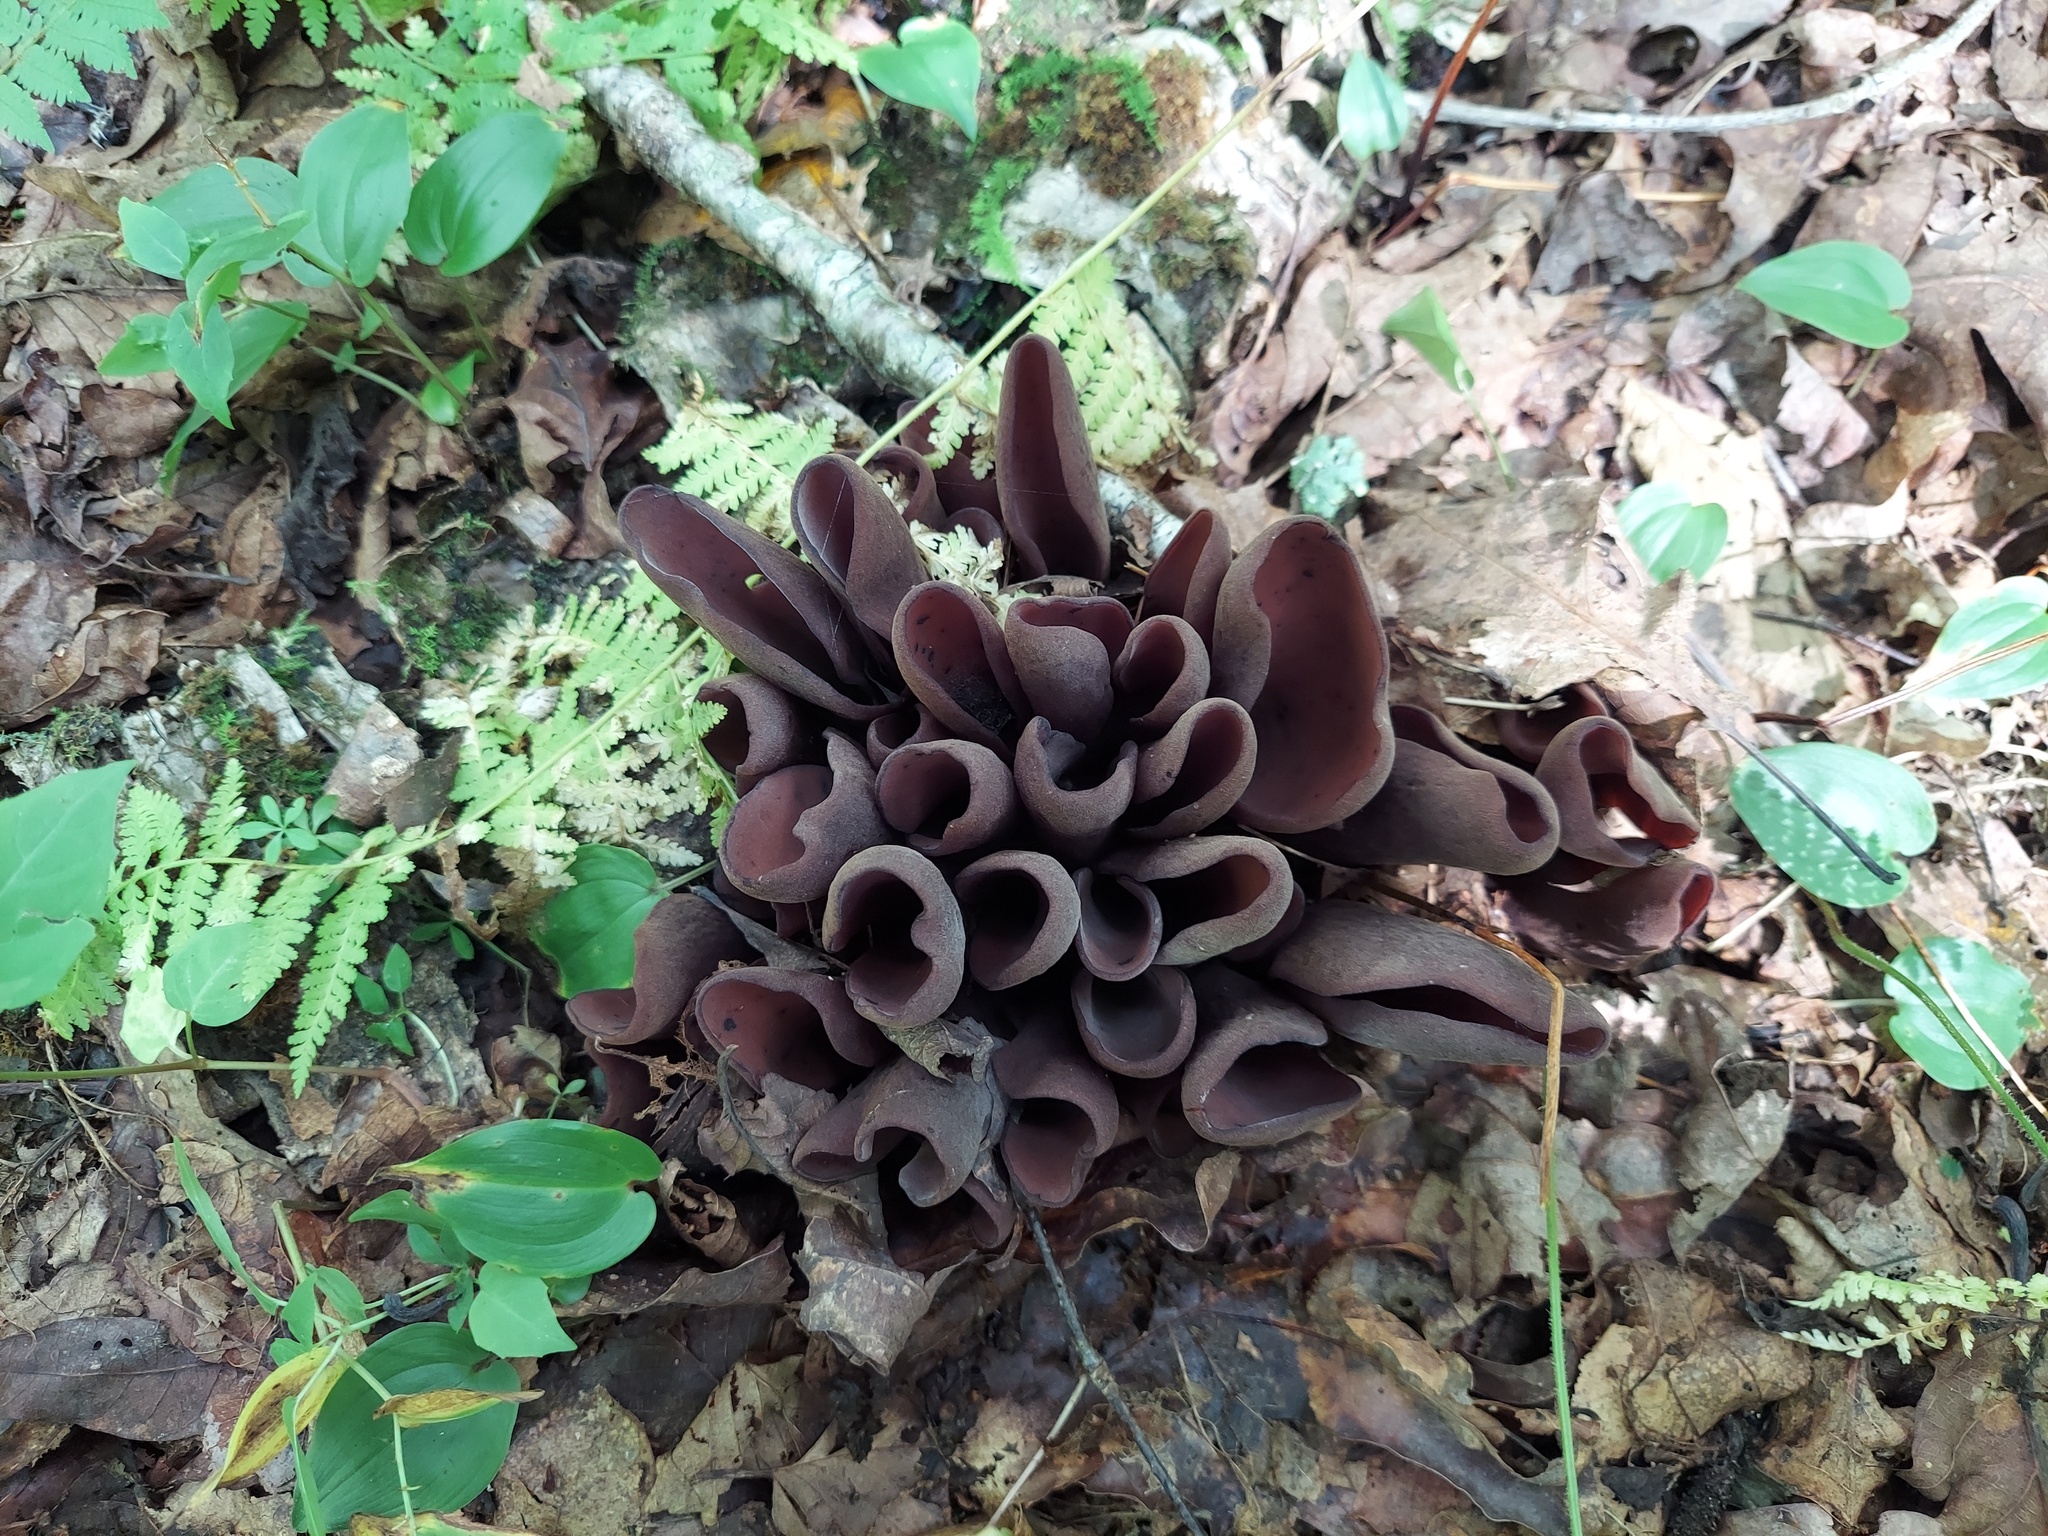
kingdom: Fungi
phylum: Ascomycota
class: Pezizomycetes
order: Pezizales
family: Wynneaceae
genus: Wynnea
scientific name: Wynnea americana
